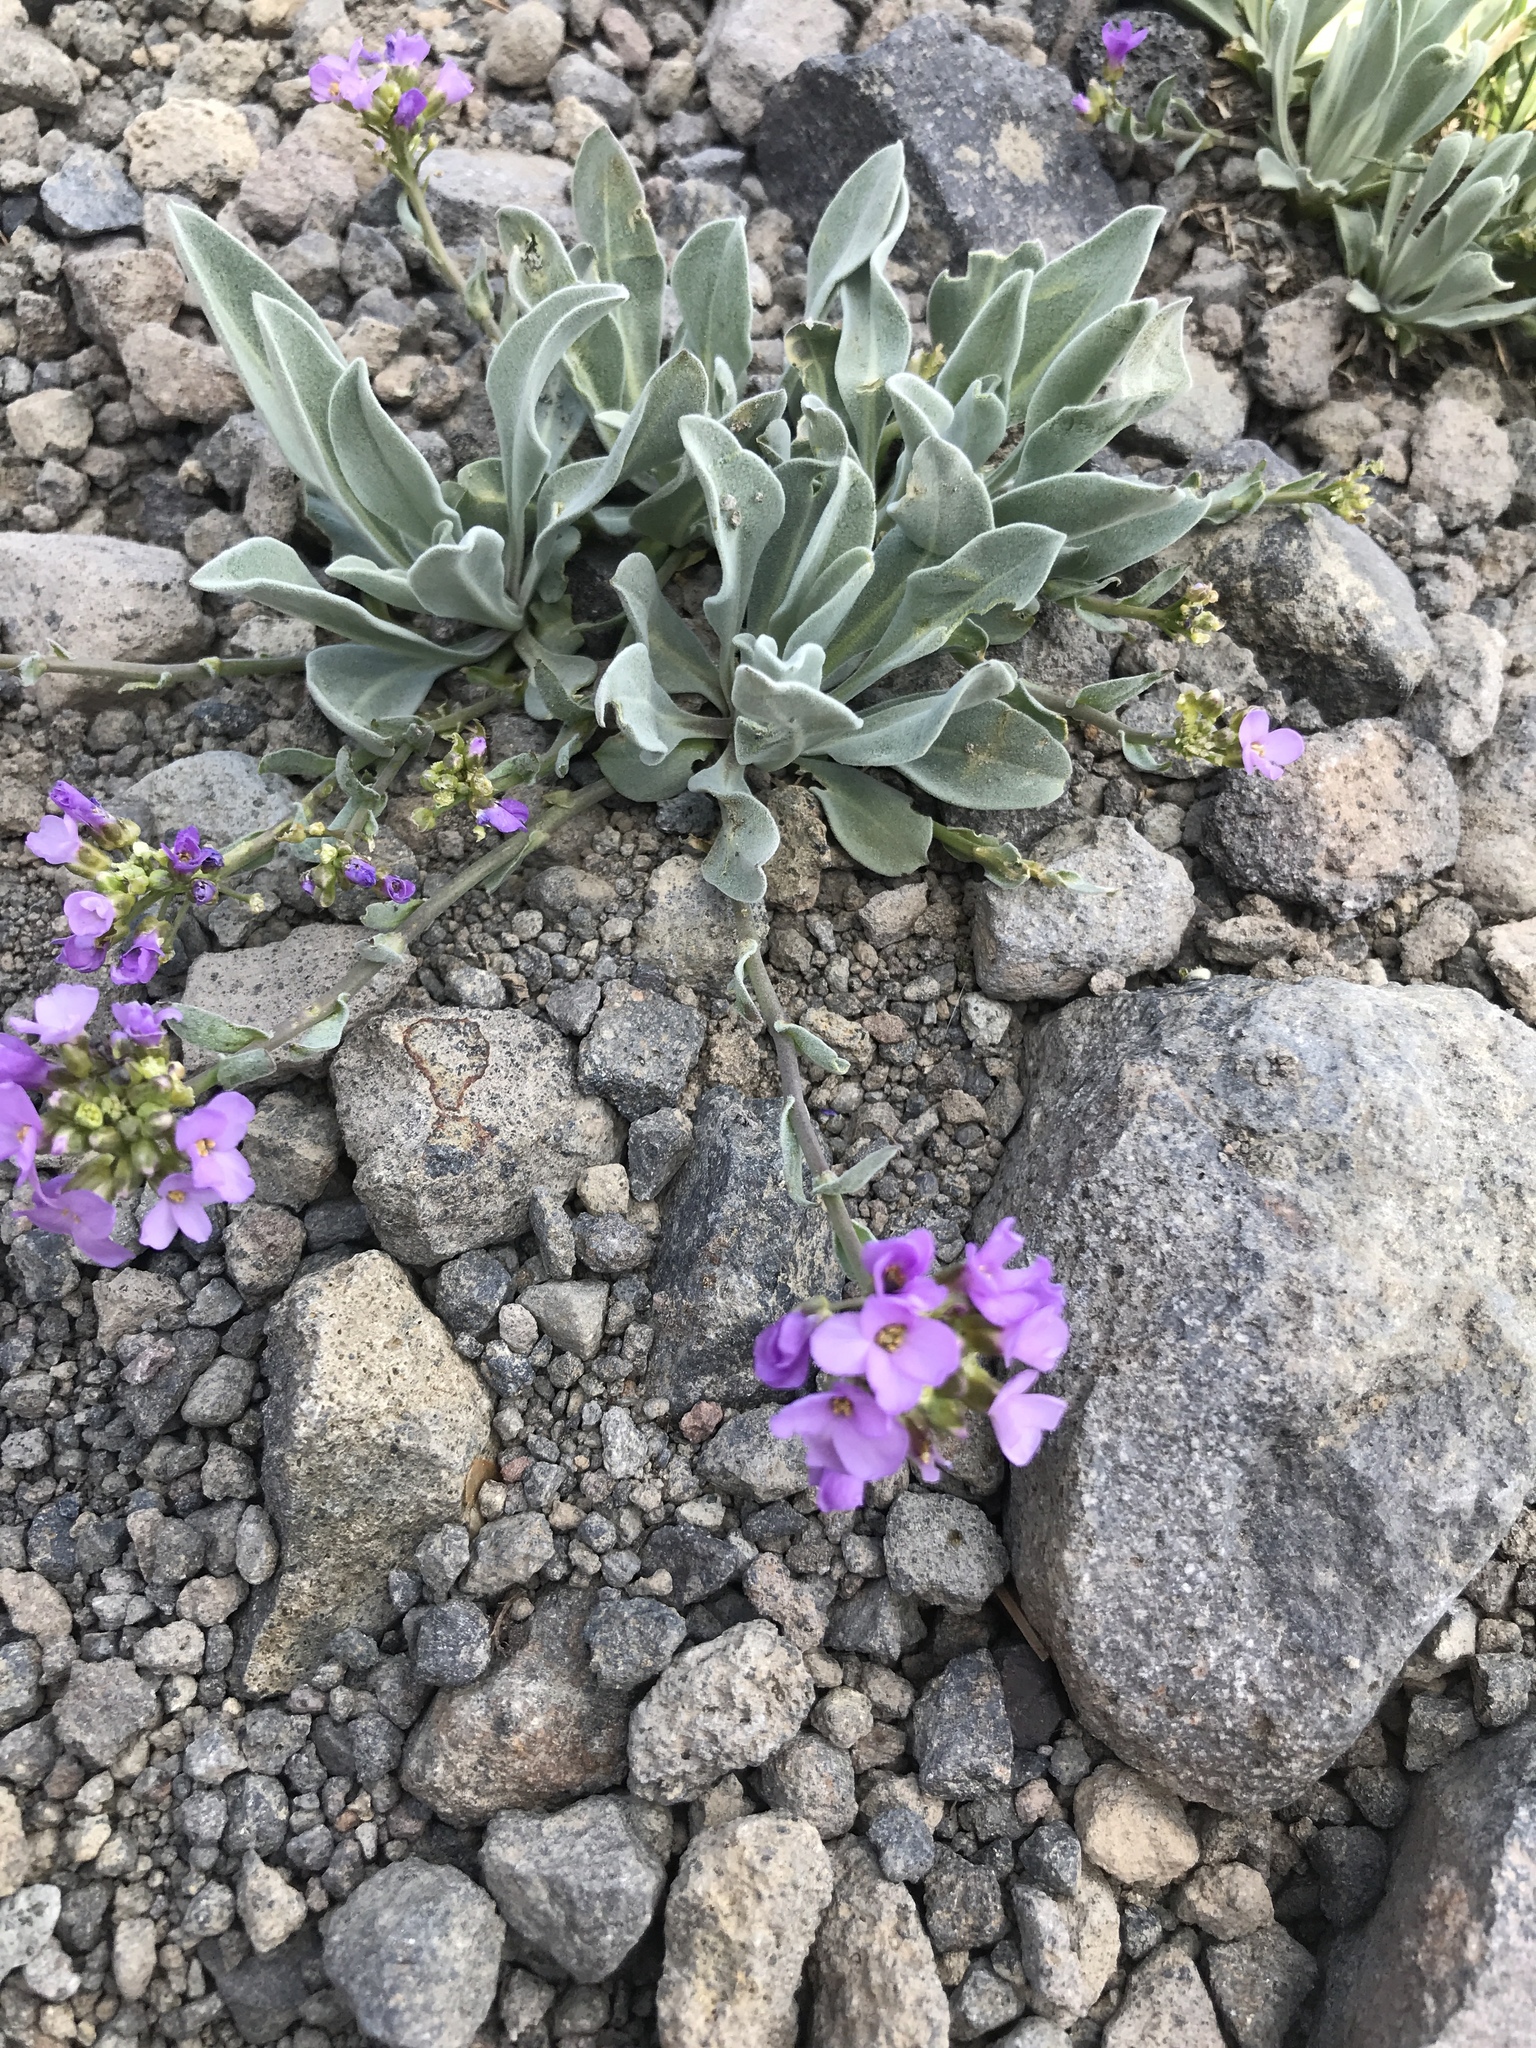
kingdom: Plantae
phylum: Tracheophyta
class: Magnoliopsida
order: Brassicales
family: Brassicaceae
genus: Phoenicaulis
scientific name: Phoenicaulis cheiranthoides
